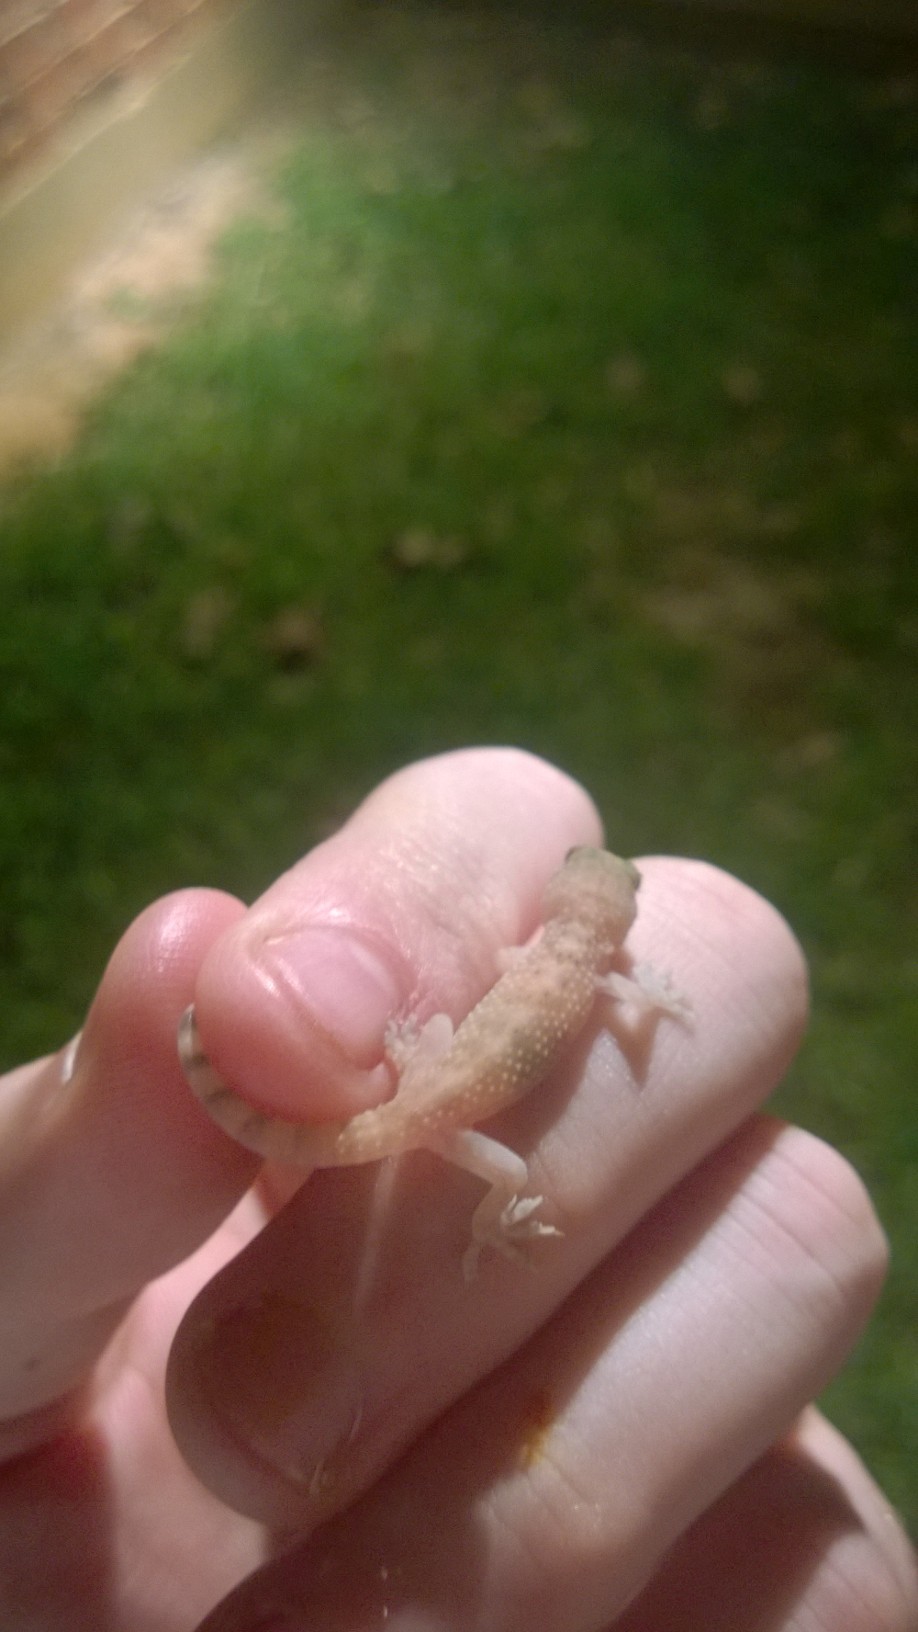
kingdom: Animalia
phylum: Chordata
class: Squamata
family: Gekkonidae
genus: Hemidactylus
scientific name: Hemidactylus turcicus
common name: Turkish gecko
